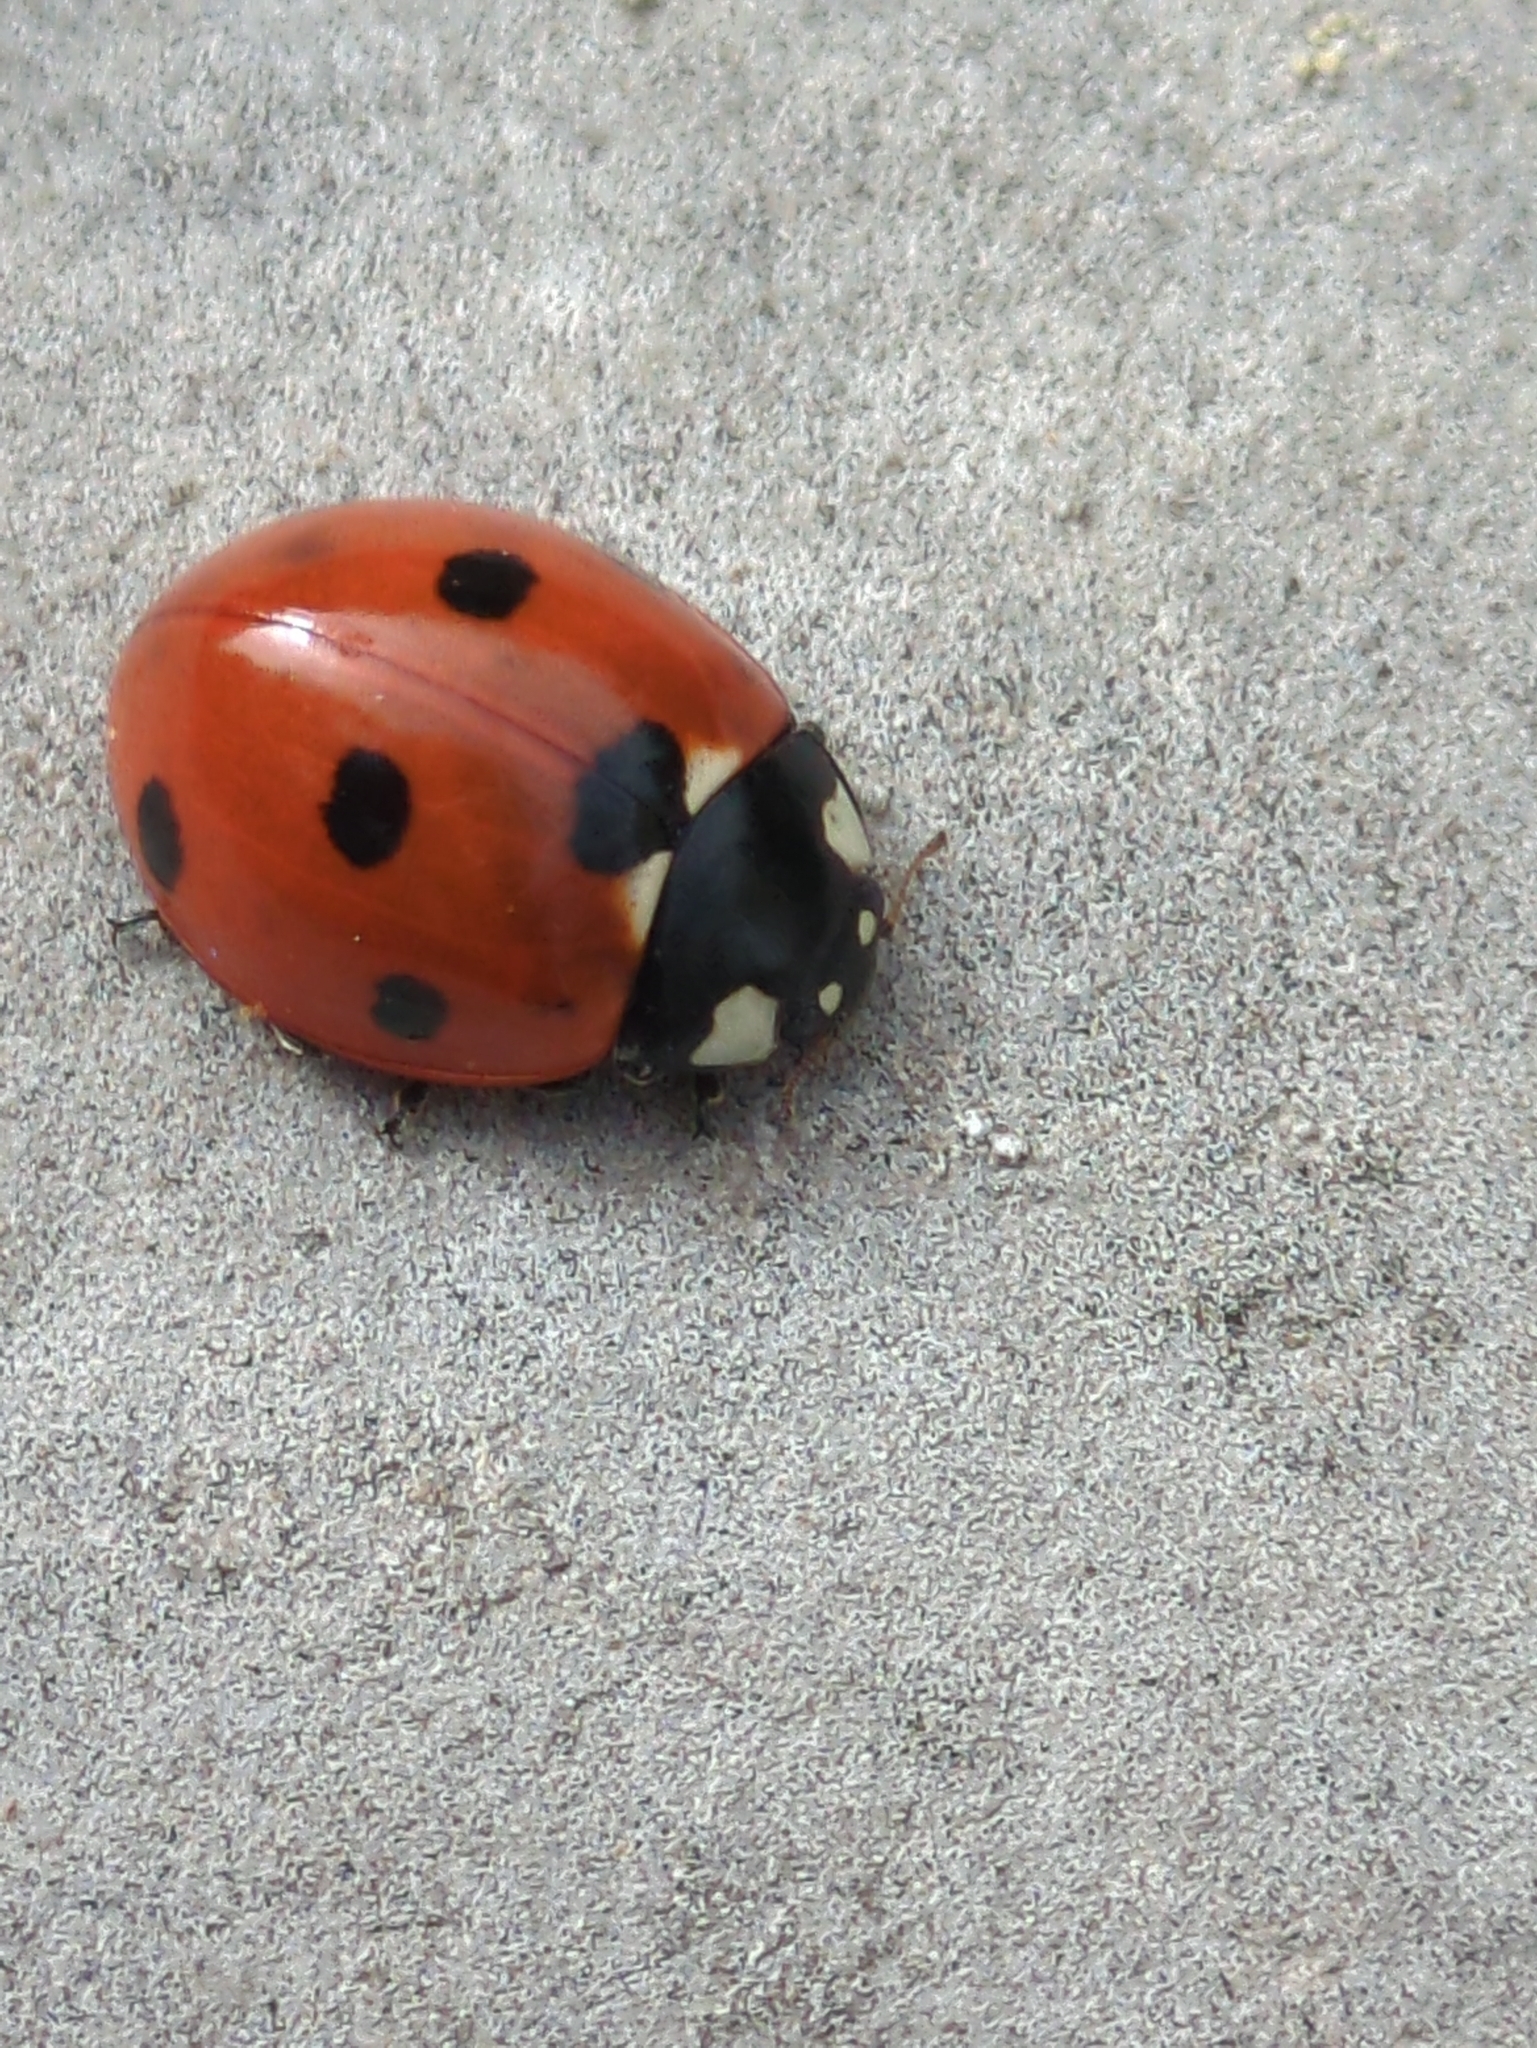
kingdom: Animalia
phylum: Arthropoda
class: Insecta
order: Coleoptera
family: Coccinellidae
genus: Coccinella
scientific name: Coccinella septempunctata
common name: Sevenspotted lady beetle
